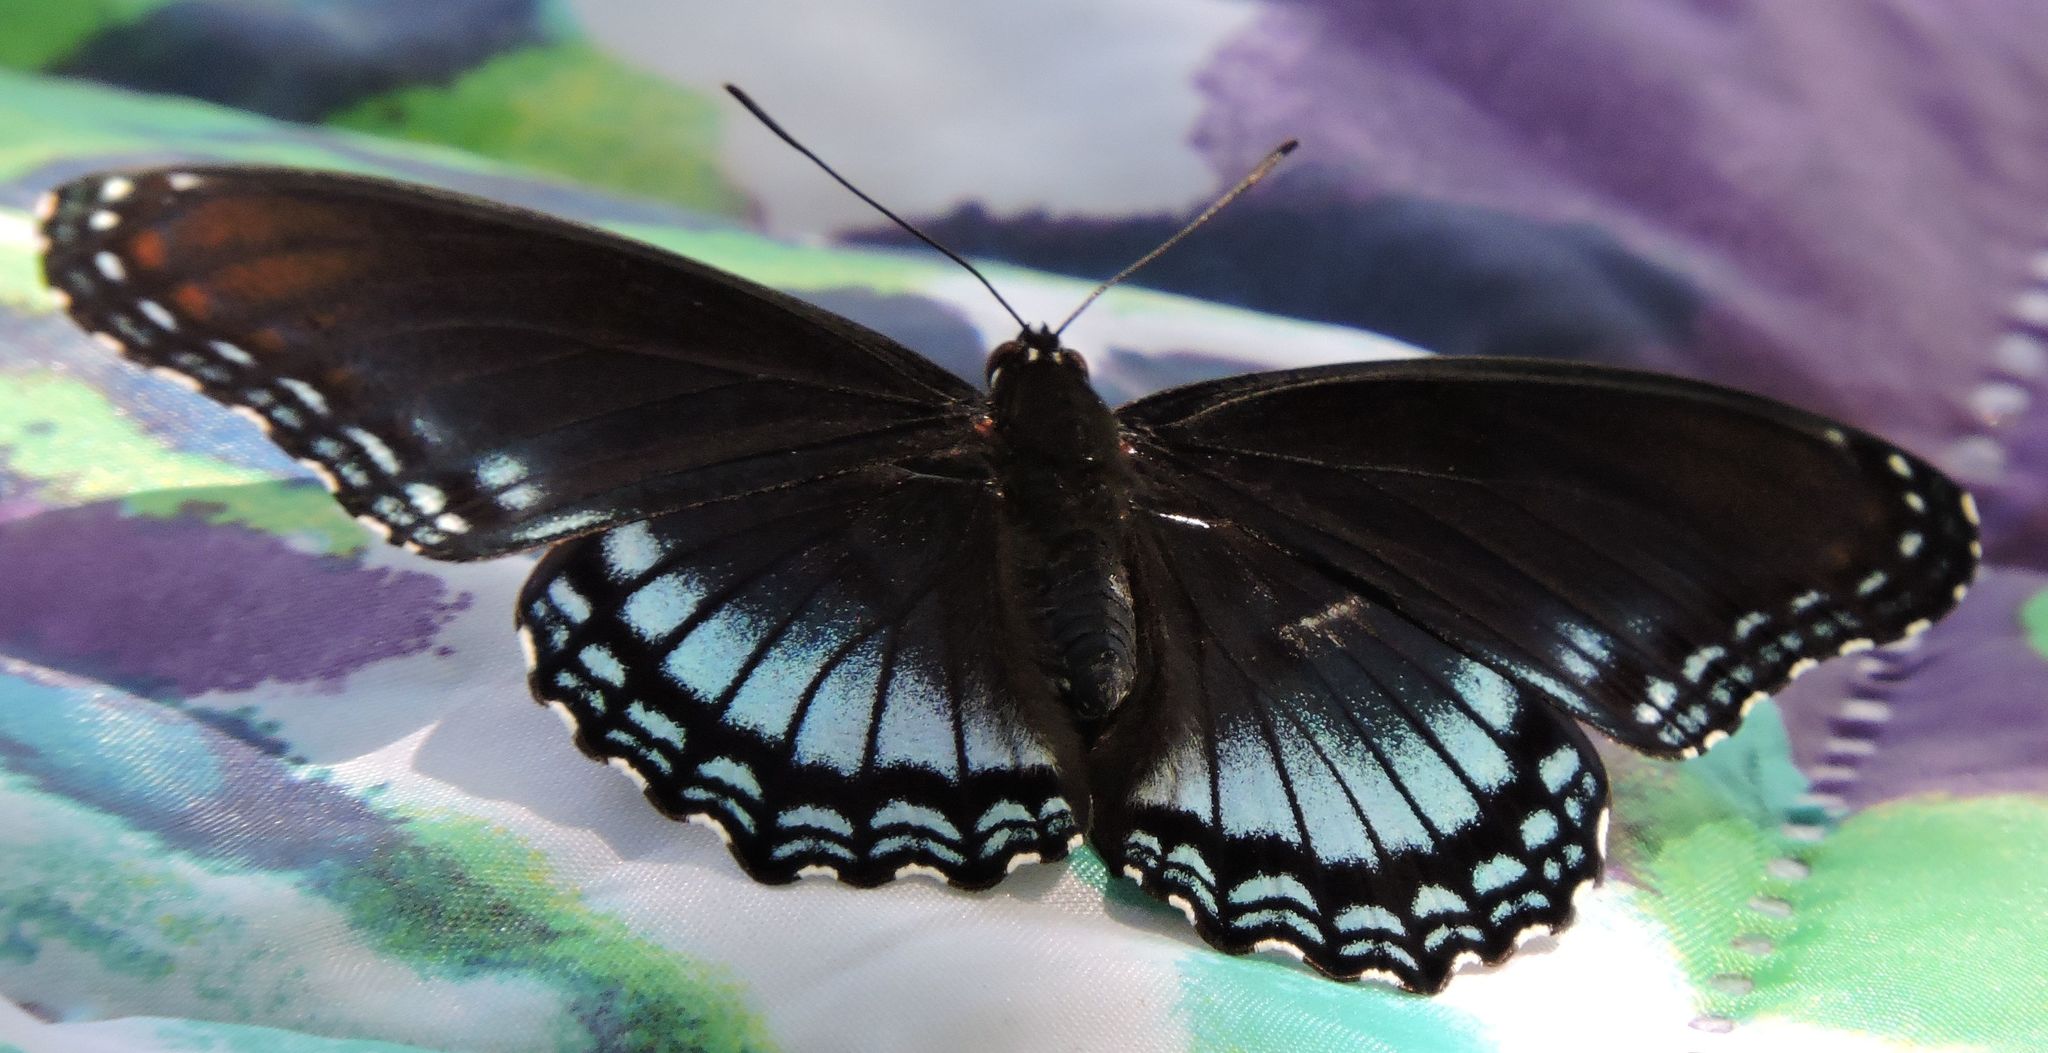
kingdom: Animalia
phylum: Arthropoda
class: Insecta
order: Lepidoptera
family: Nymphalidae
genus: Limenitis
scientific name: Limenitis astyanax
